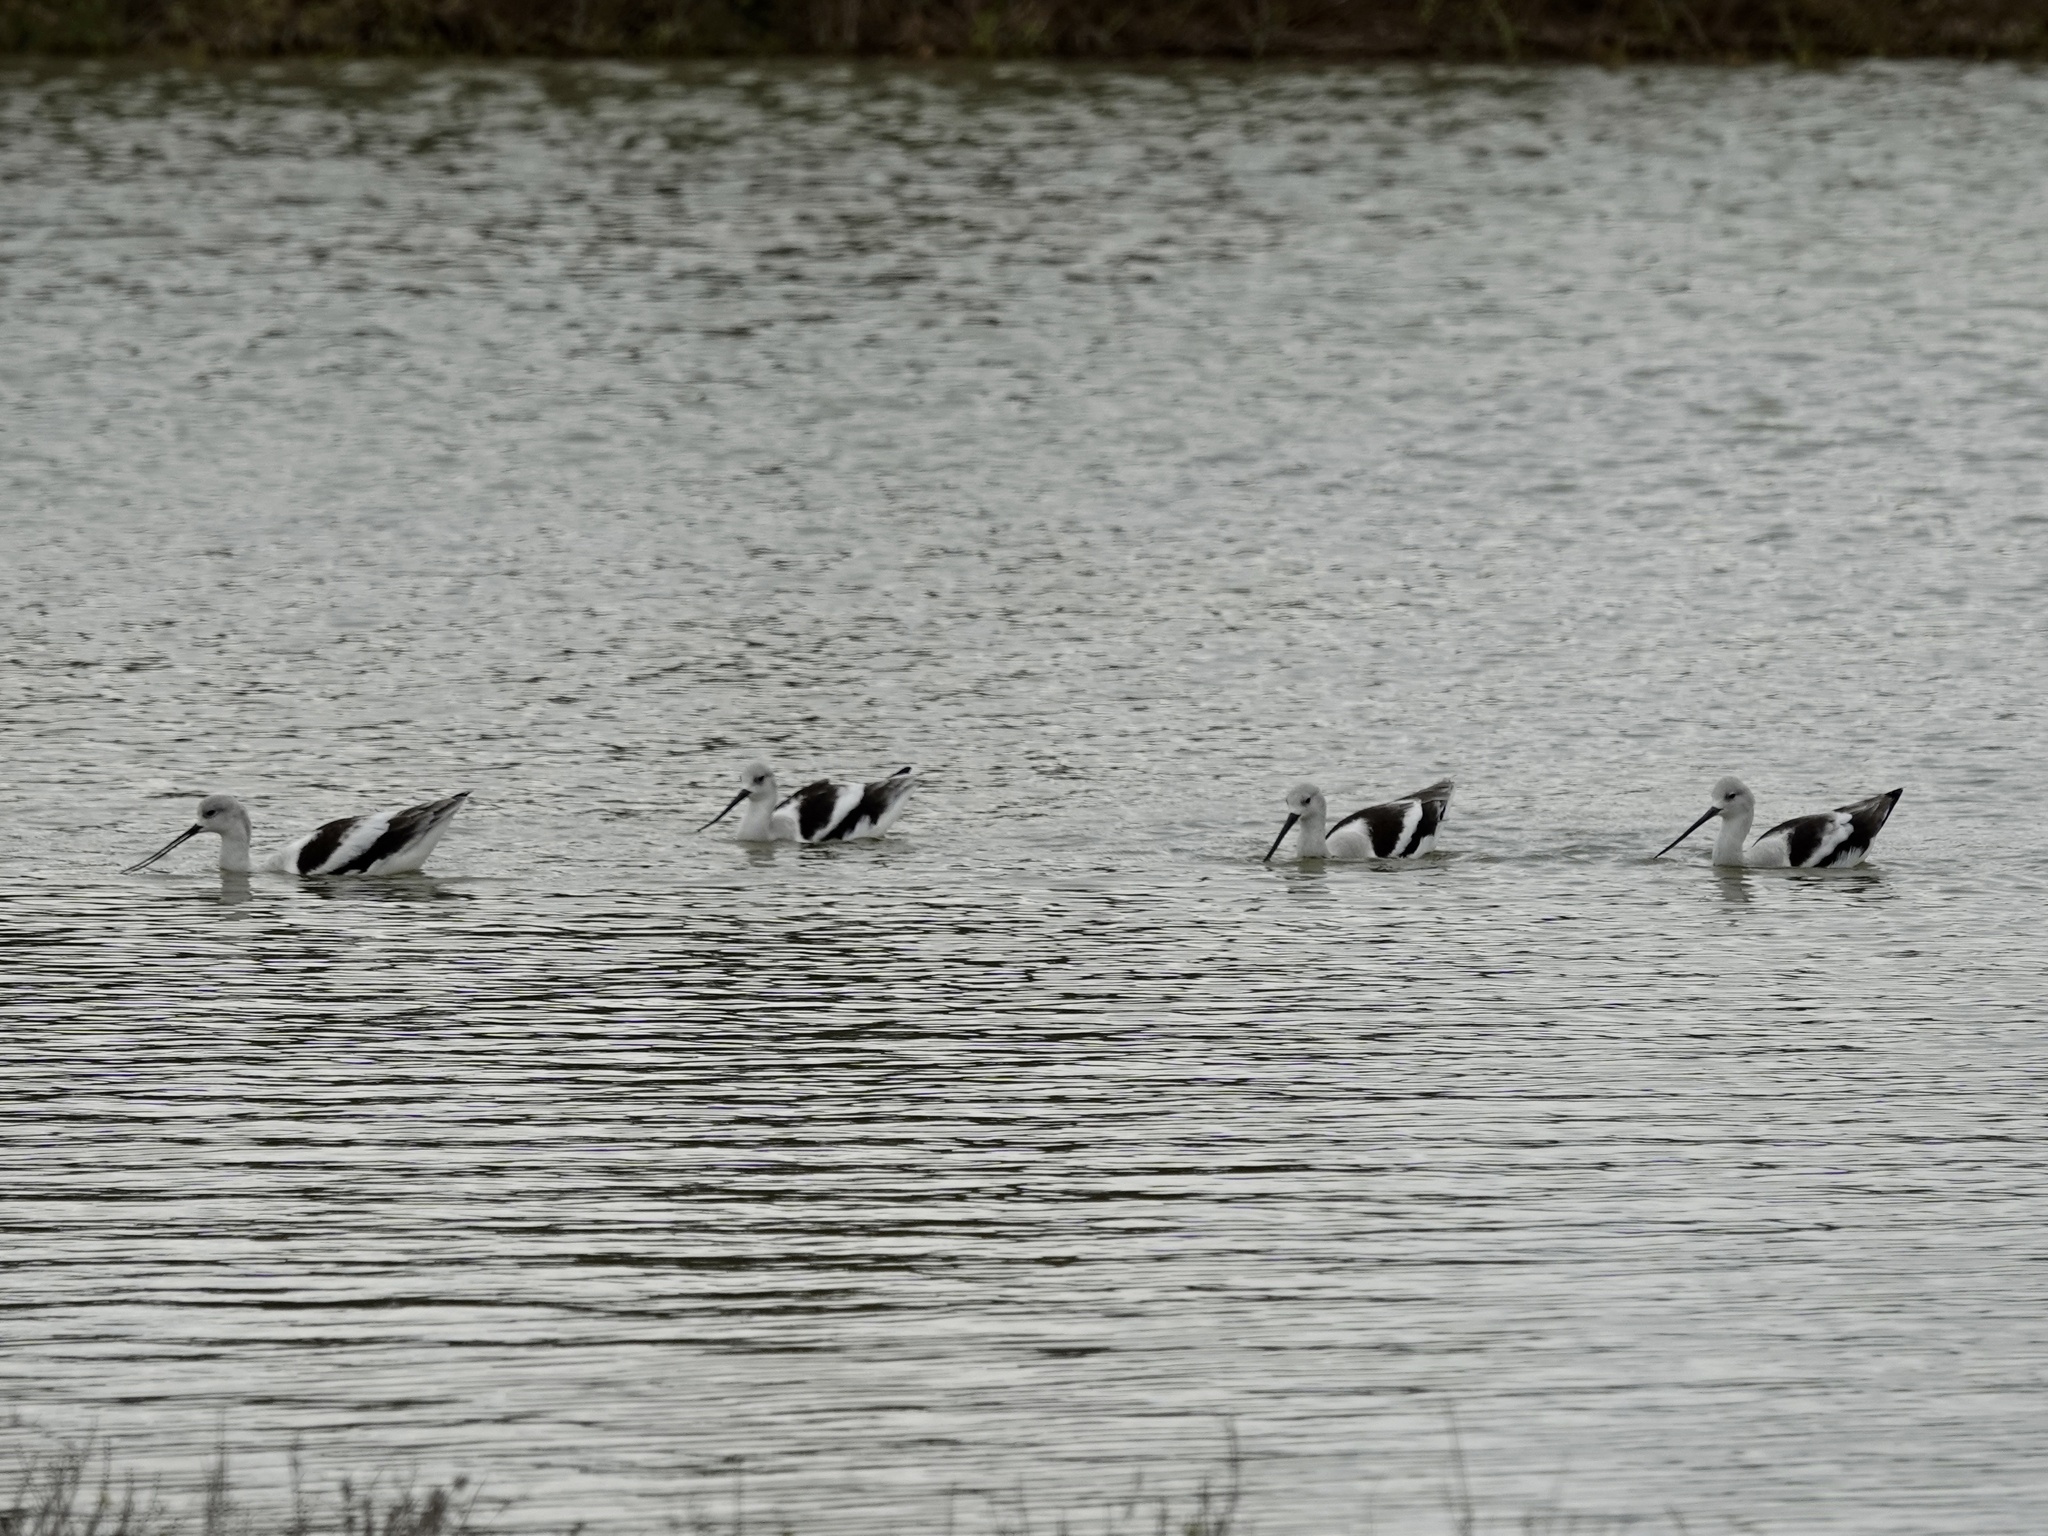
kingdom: Animalia
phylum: Chordata
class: Aves
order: Charadriiformes
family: Recurvirostridae
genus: Recurvirostra
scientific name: Recurvirostra americana
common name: American avocet
